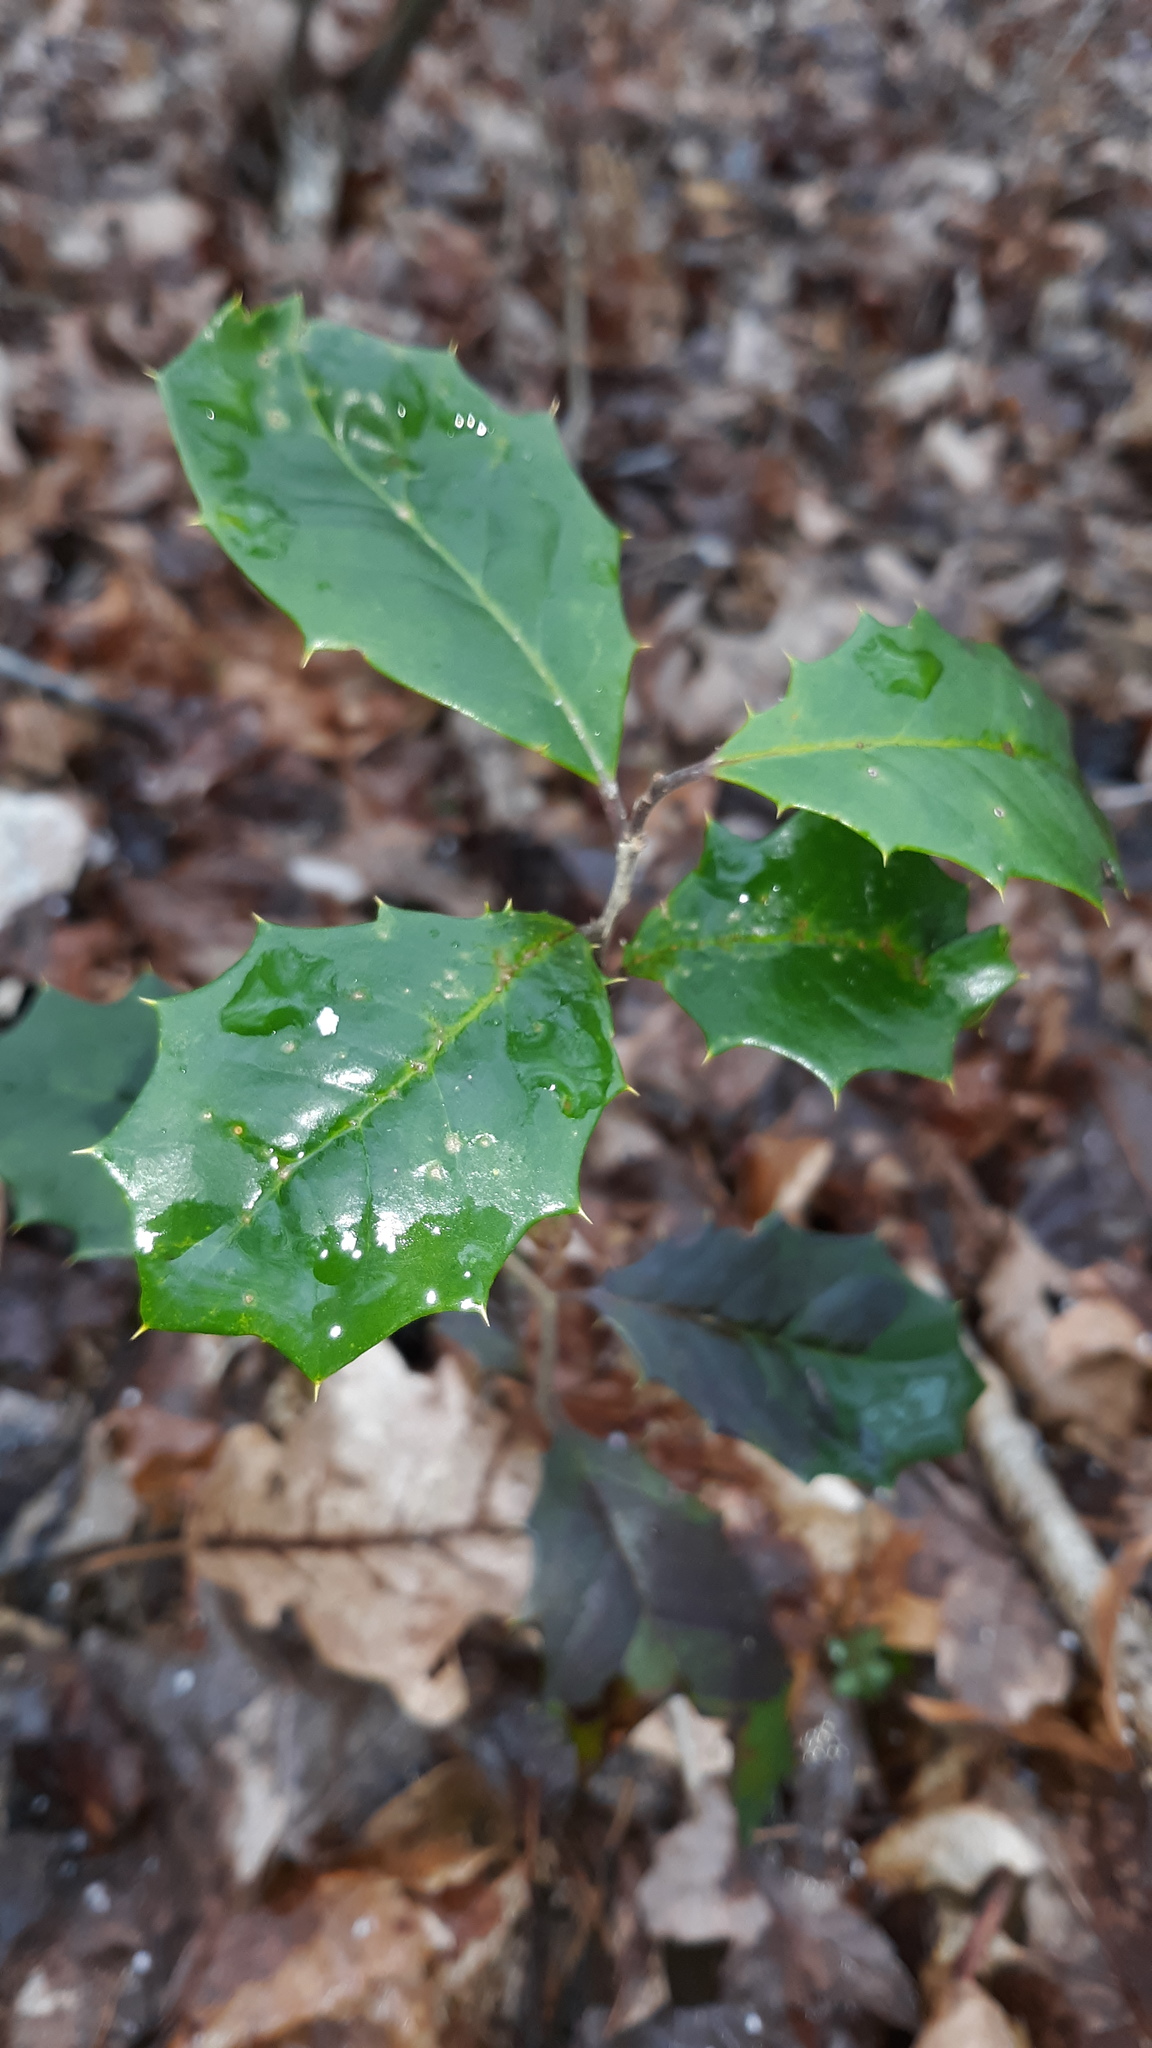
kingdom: Plantae
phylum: Tracheophyta
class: Magnoliopsida
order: Aquifoliales
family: Aquifoliaceae
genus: Ilex
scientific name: Ilex opaca
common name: American holly
